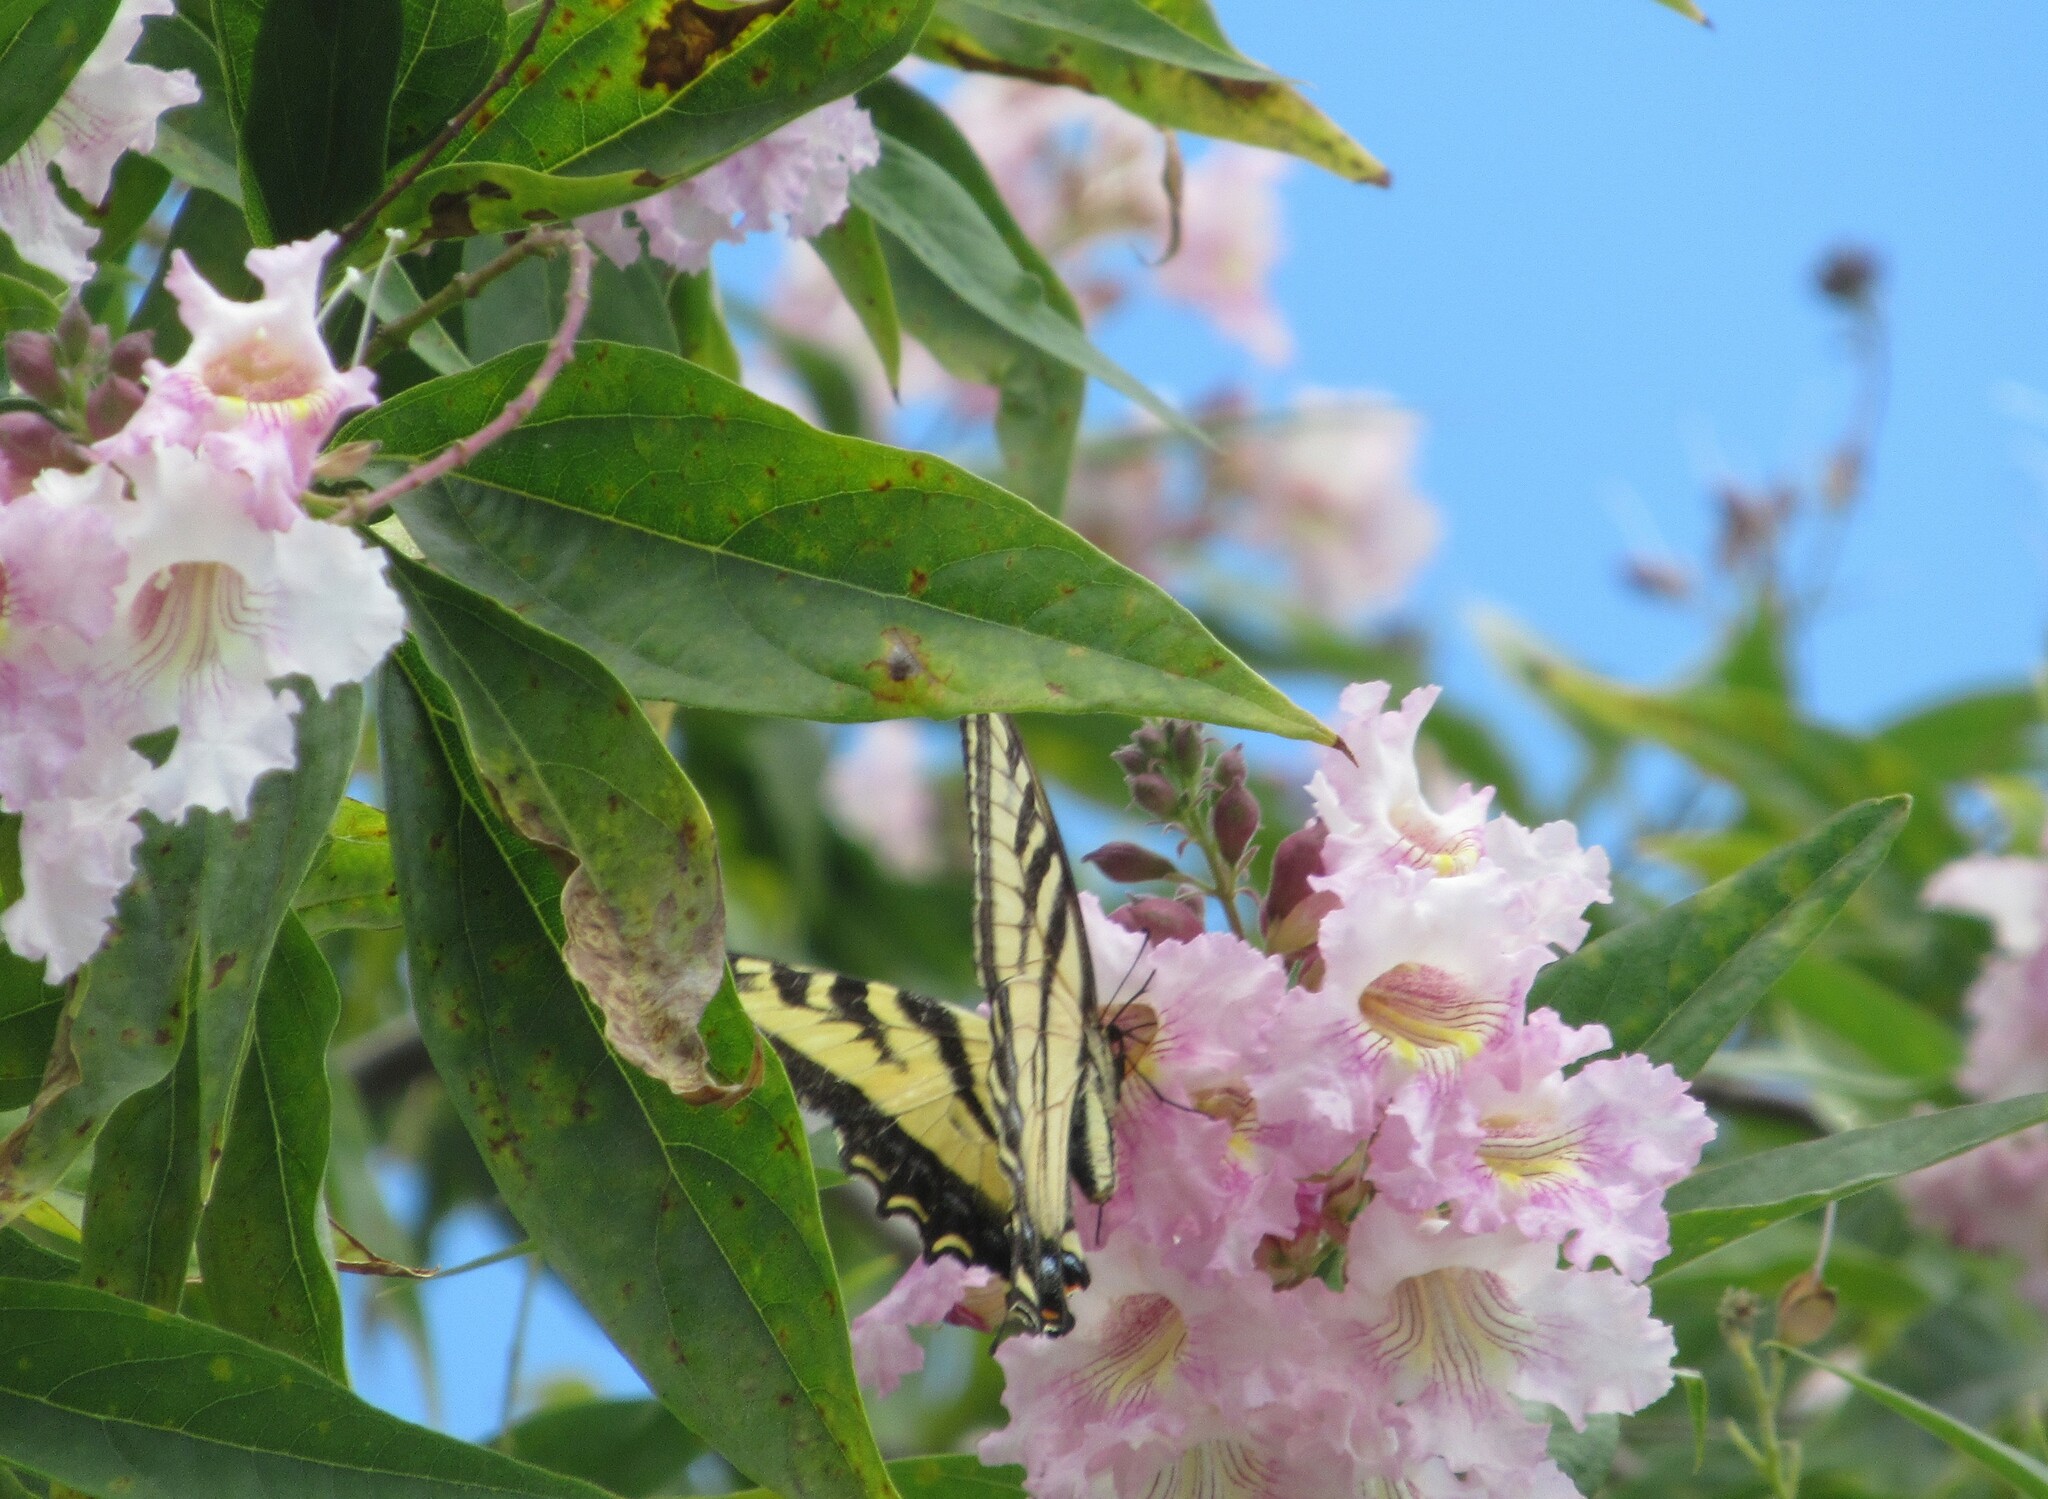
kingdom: Animalia
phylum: Arthropoda
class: Insecta
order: Lepidoptera
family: Papilionidae
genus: Papilio
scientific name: Papilio rutulus
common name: Western tiger swallowtail
